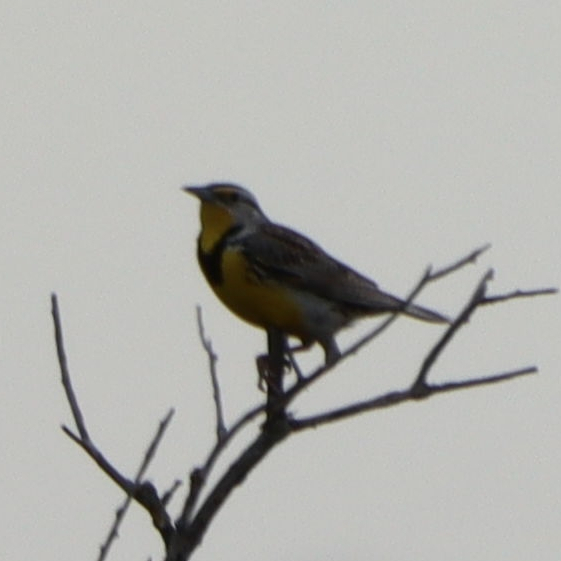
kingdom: Animalia
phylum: Chordata
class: Aves
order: Passeriformes
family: Icteridae
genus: Sturnella
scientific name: Sturnella neglecta
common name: Western meadowlark
